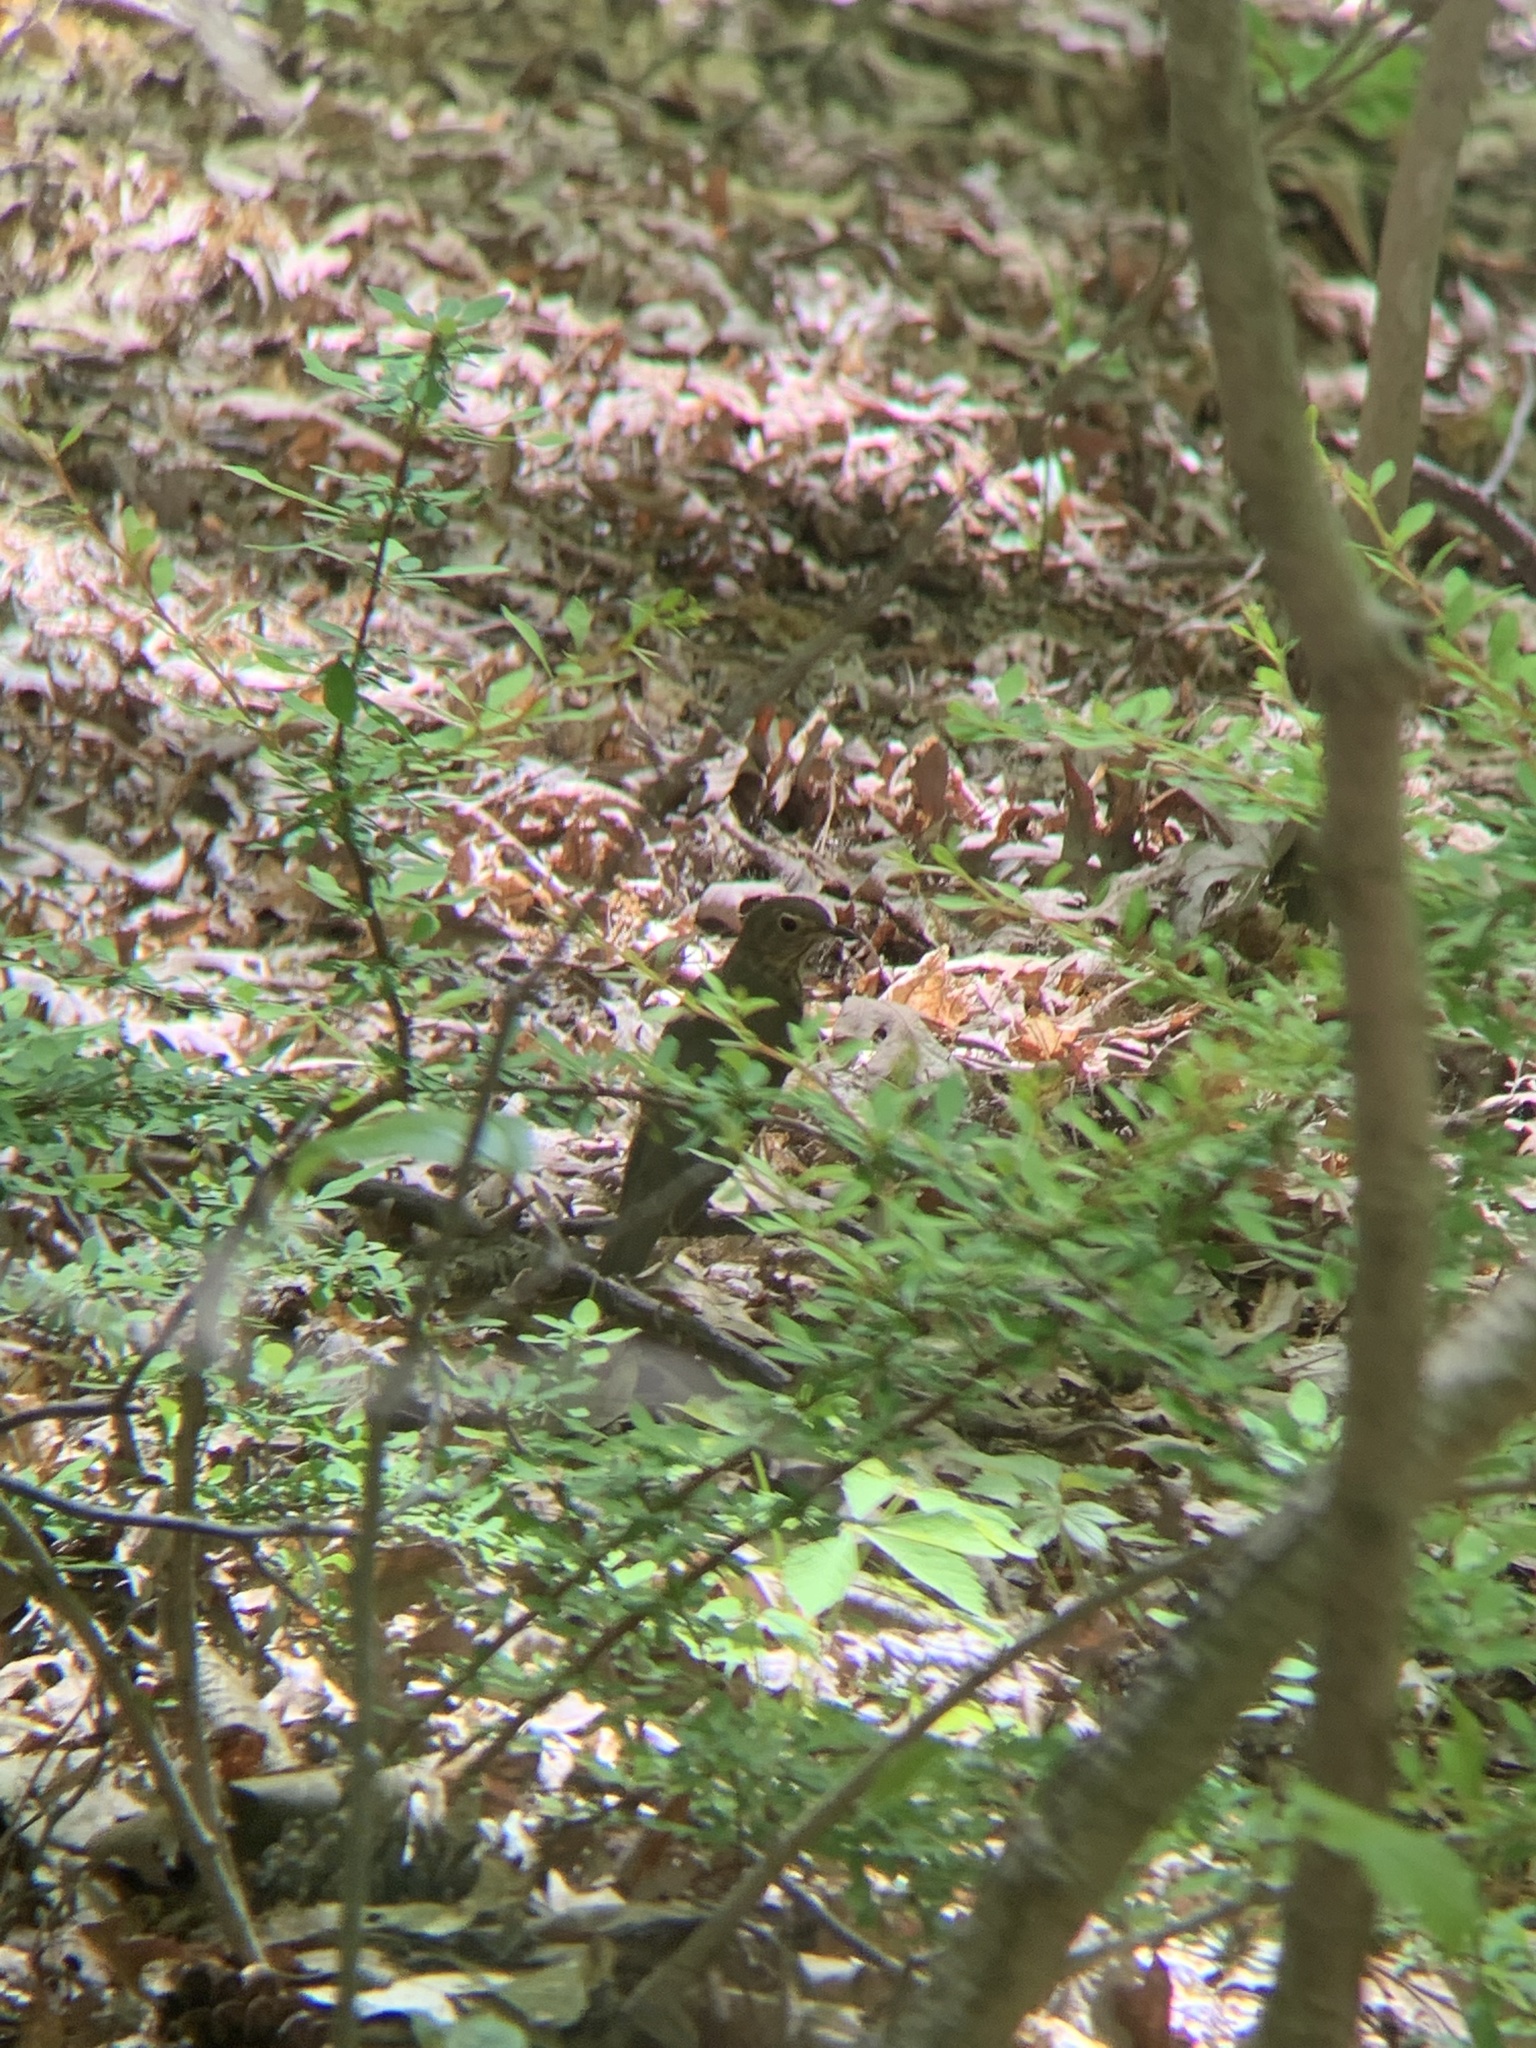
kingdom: Animalia
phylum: Chordata
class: Aves
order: Passeriformes
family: Turdidae
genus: Catharus
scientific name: Catharus ustulatus
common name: Swainson's thrush
